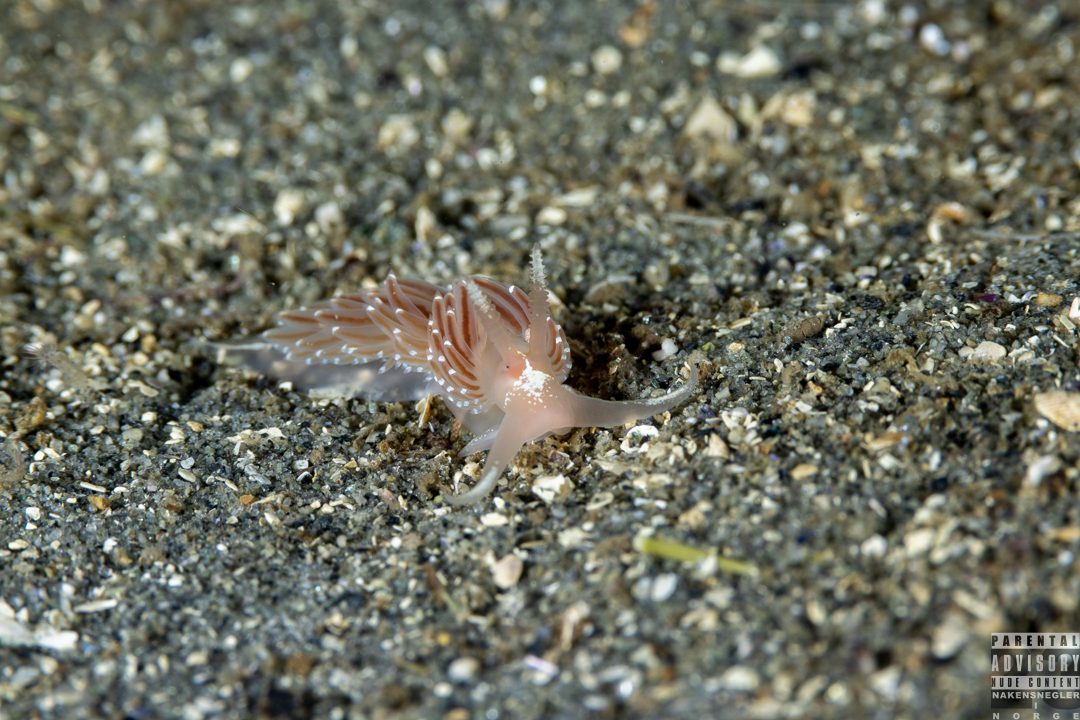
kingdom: Animalia
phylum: Mollusca
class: Gastropoda
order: Nudibranchia
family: Facelinidae
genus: Facelina
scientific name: Facelina bostoniensis
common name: Boston facelina
